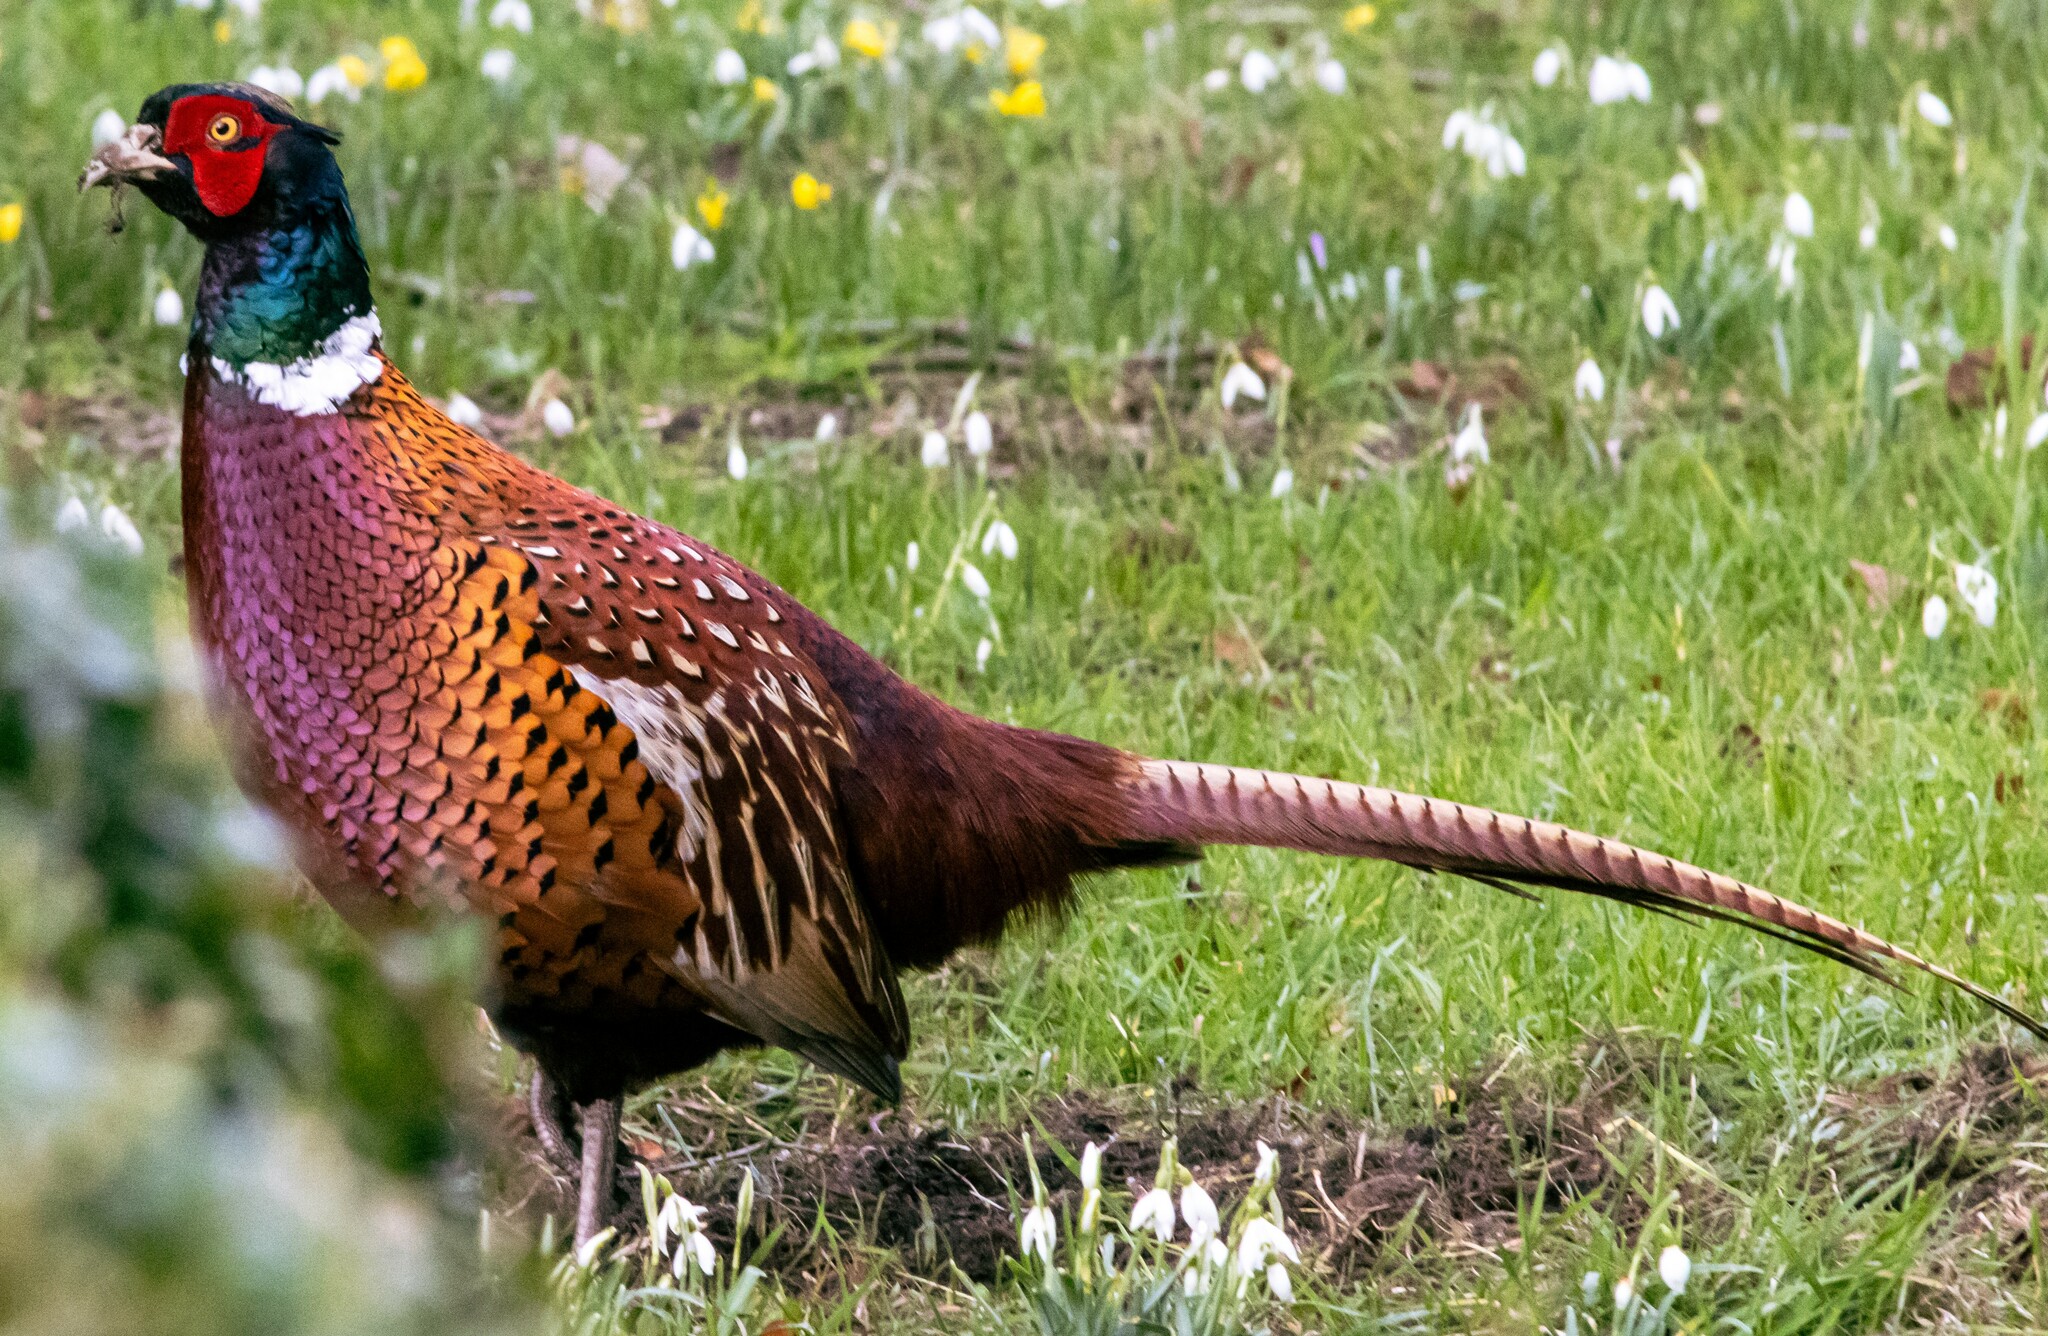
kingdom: Animalia
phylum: Chordata
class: Aves
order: Galliformes
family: Phasianidae
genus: Phasianus
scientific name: Phasianus colchicus
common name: Common pheasant
